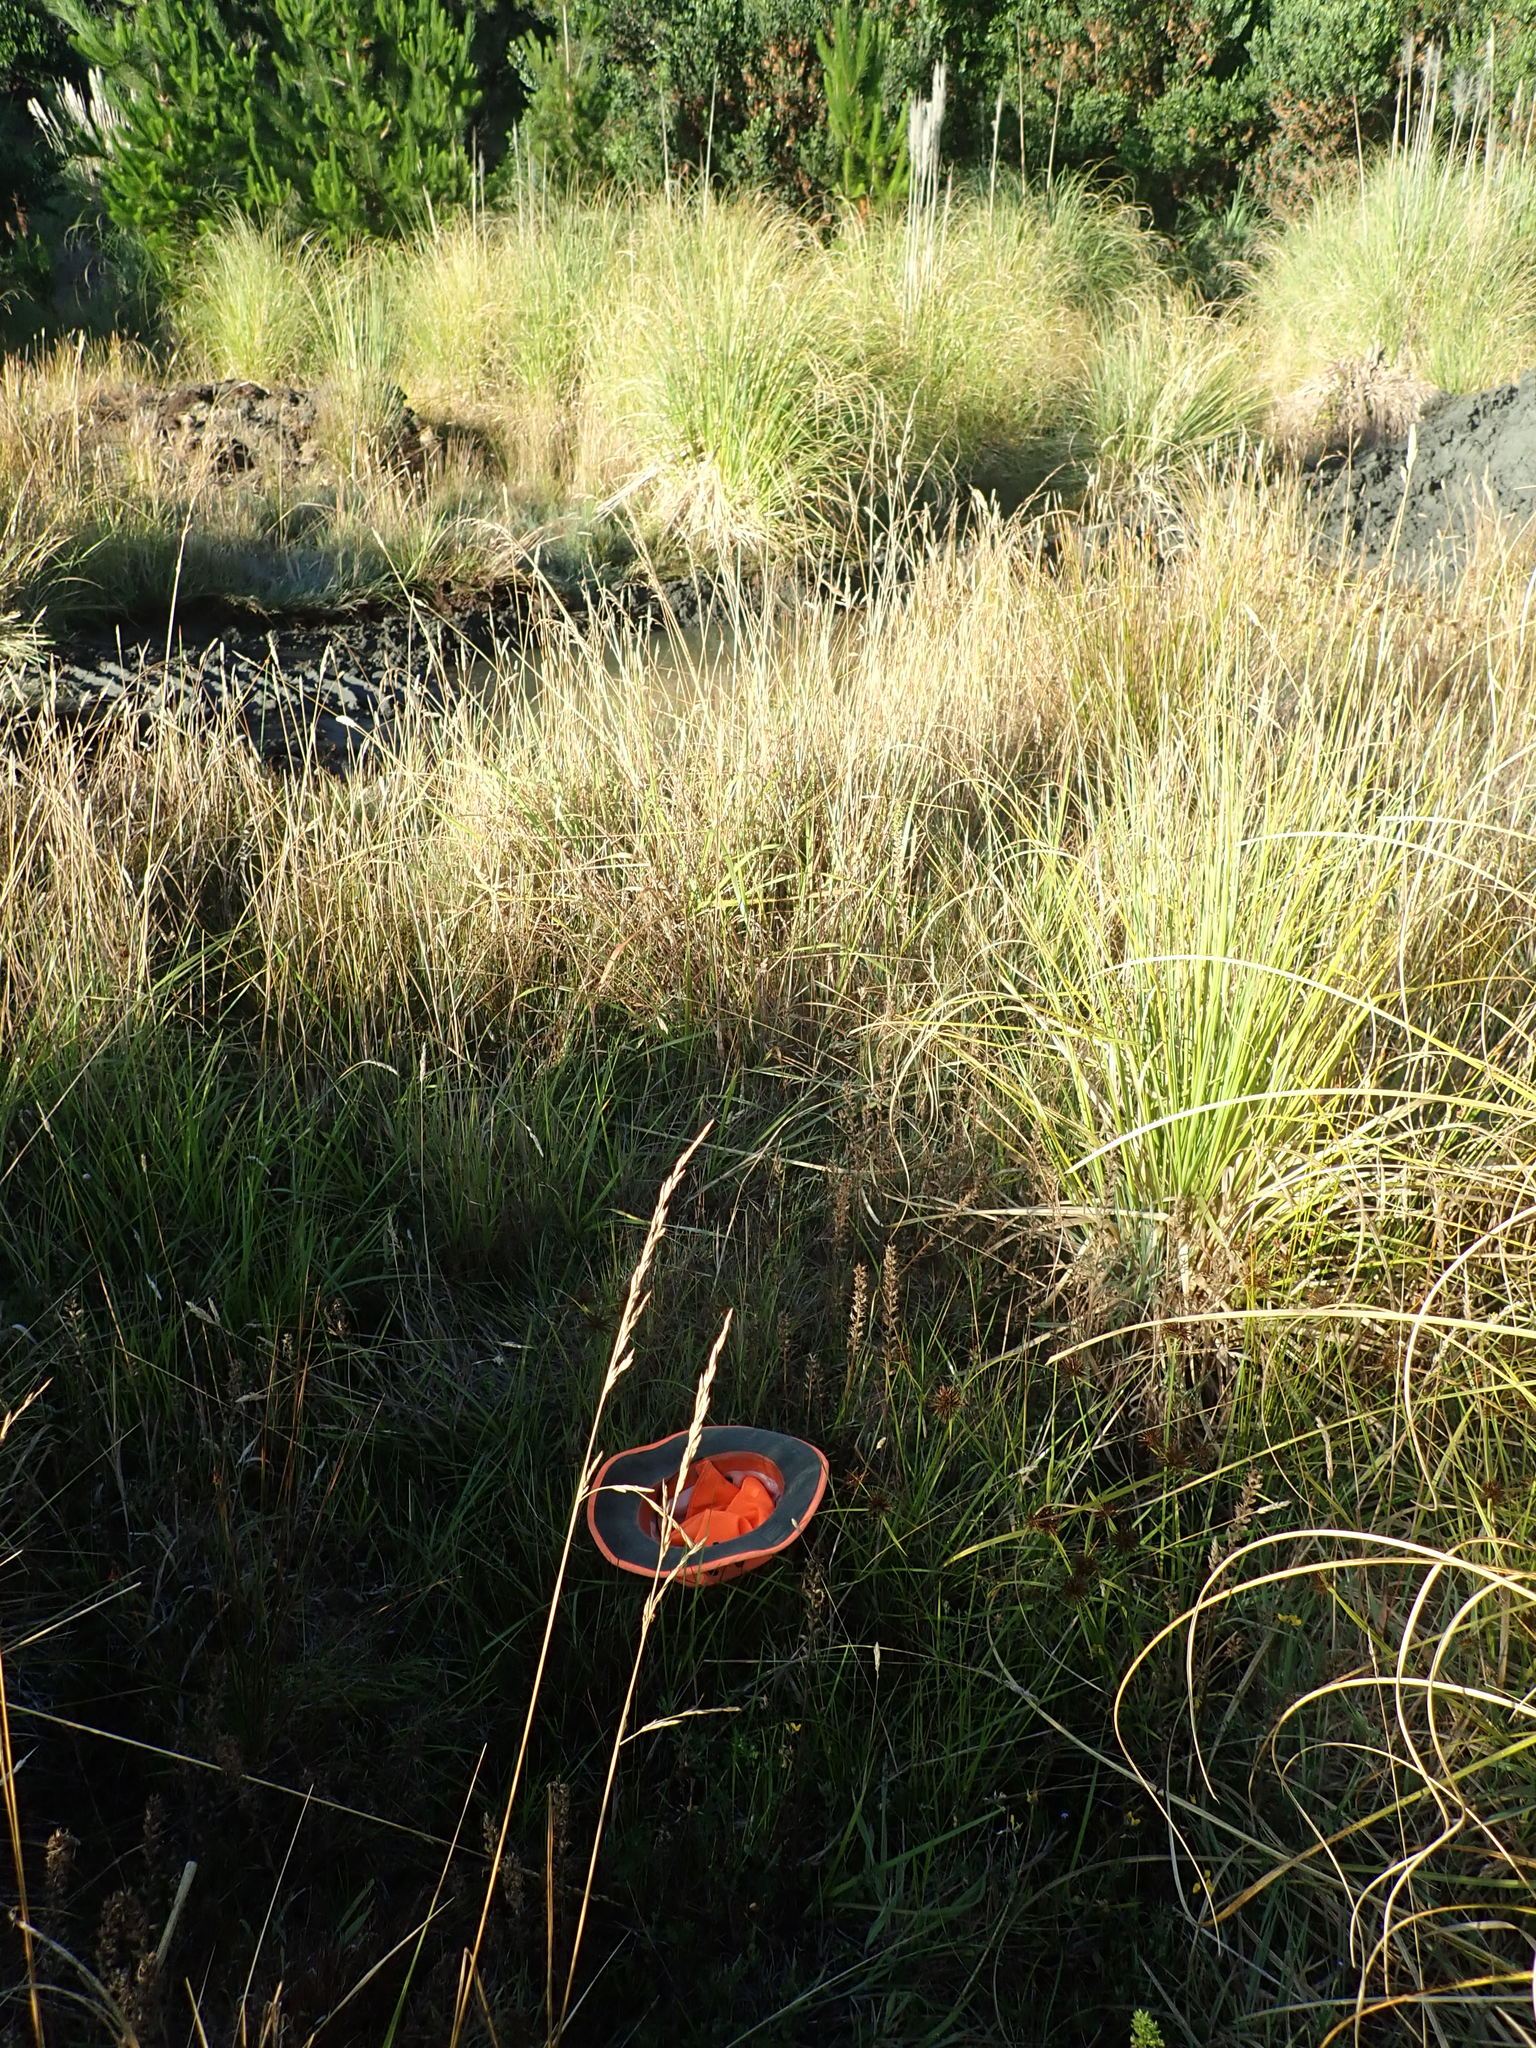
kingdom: Plantae
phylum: Tracheophyta
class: Liliopsida
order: Poales
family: Cyperaceae
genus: Cyperus
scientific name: Cyperus congestus
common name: Dense flat sedge
